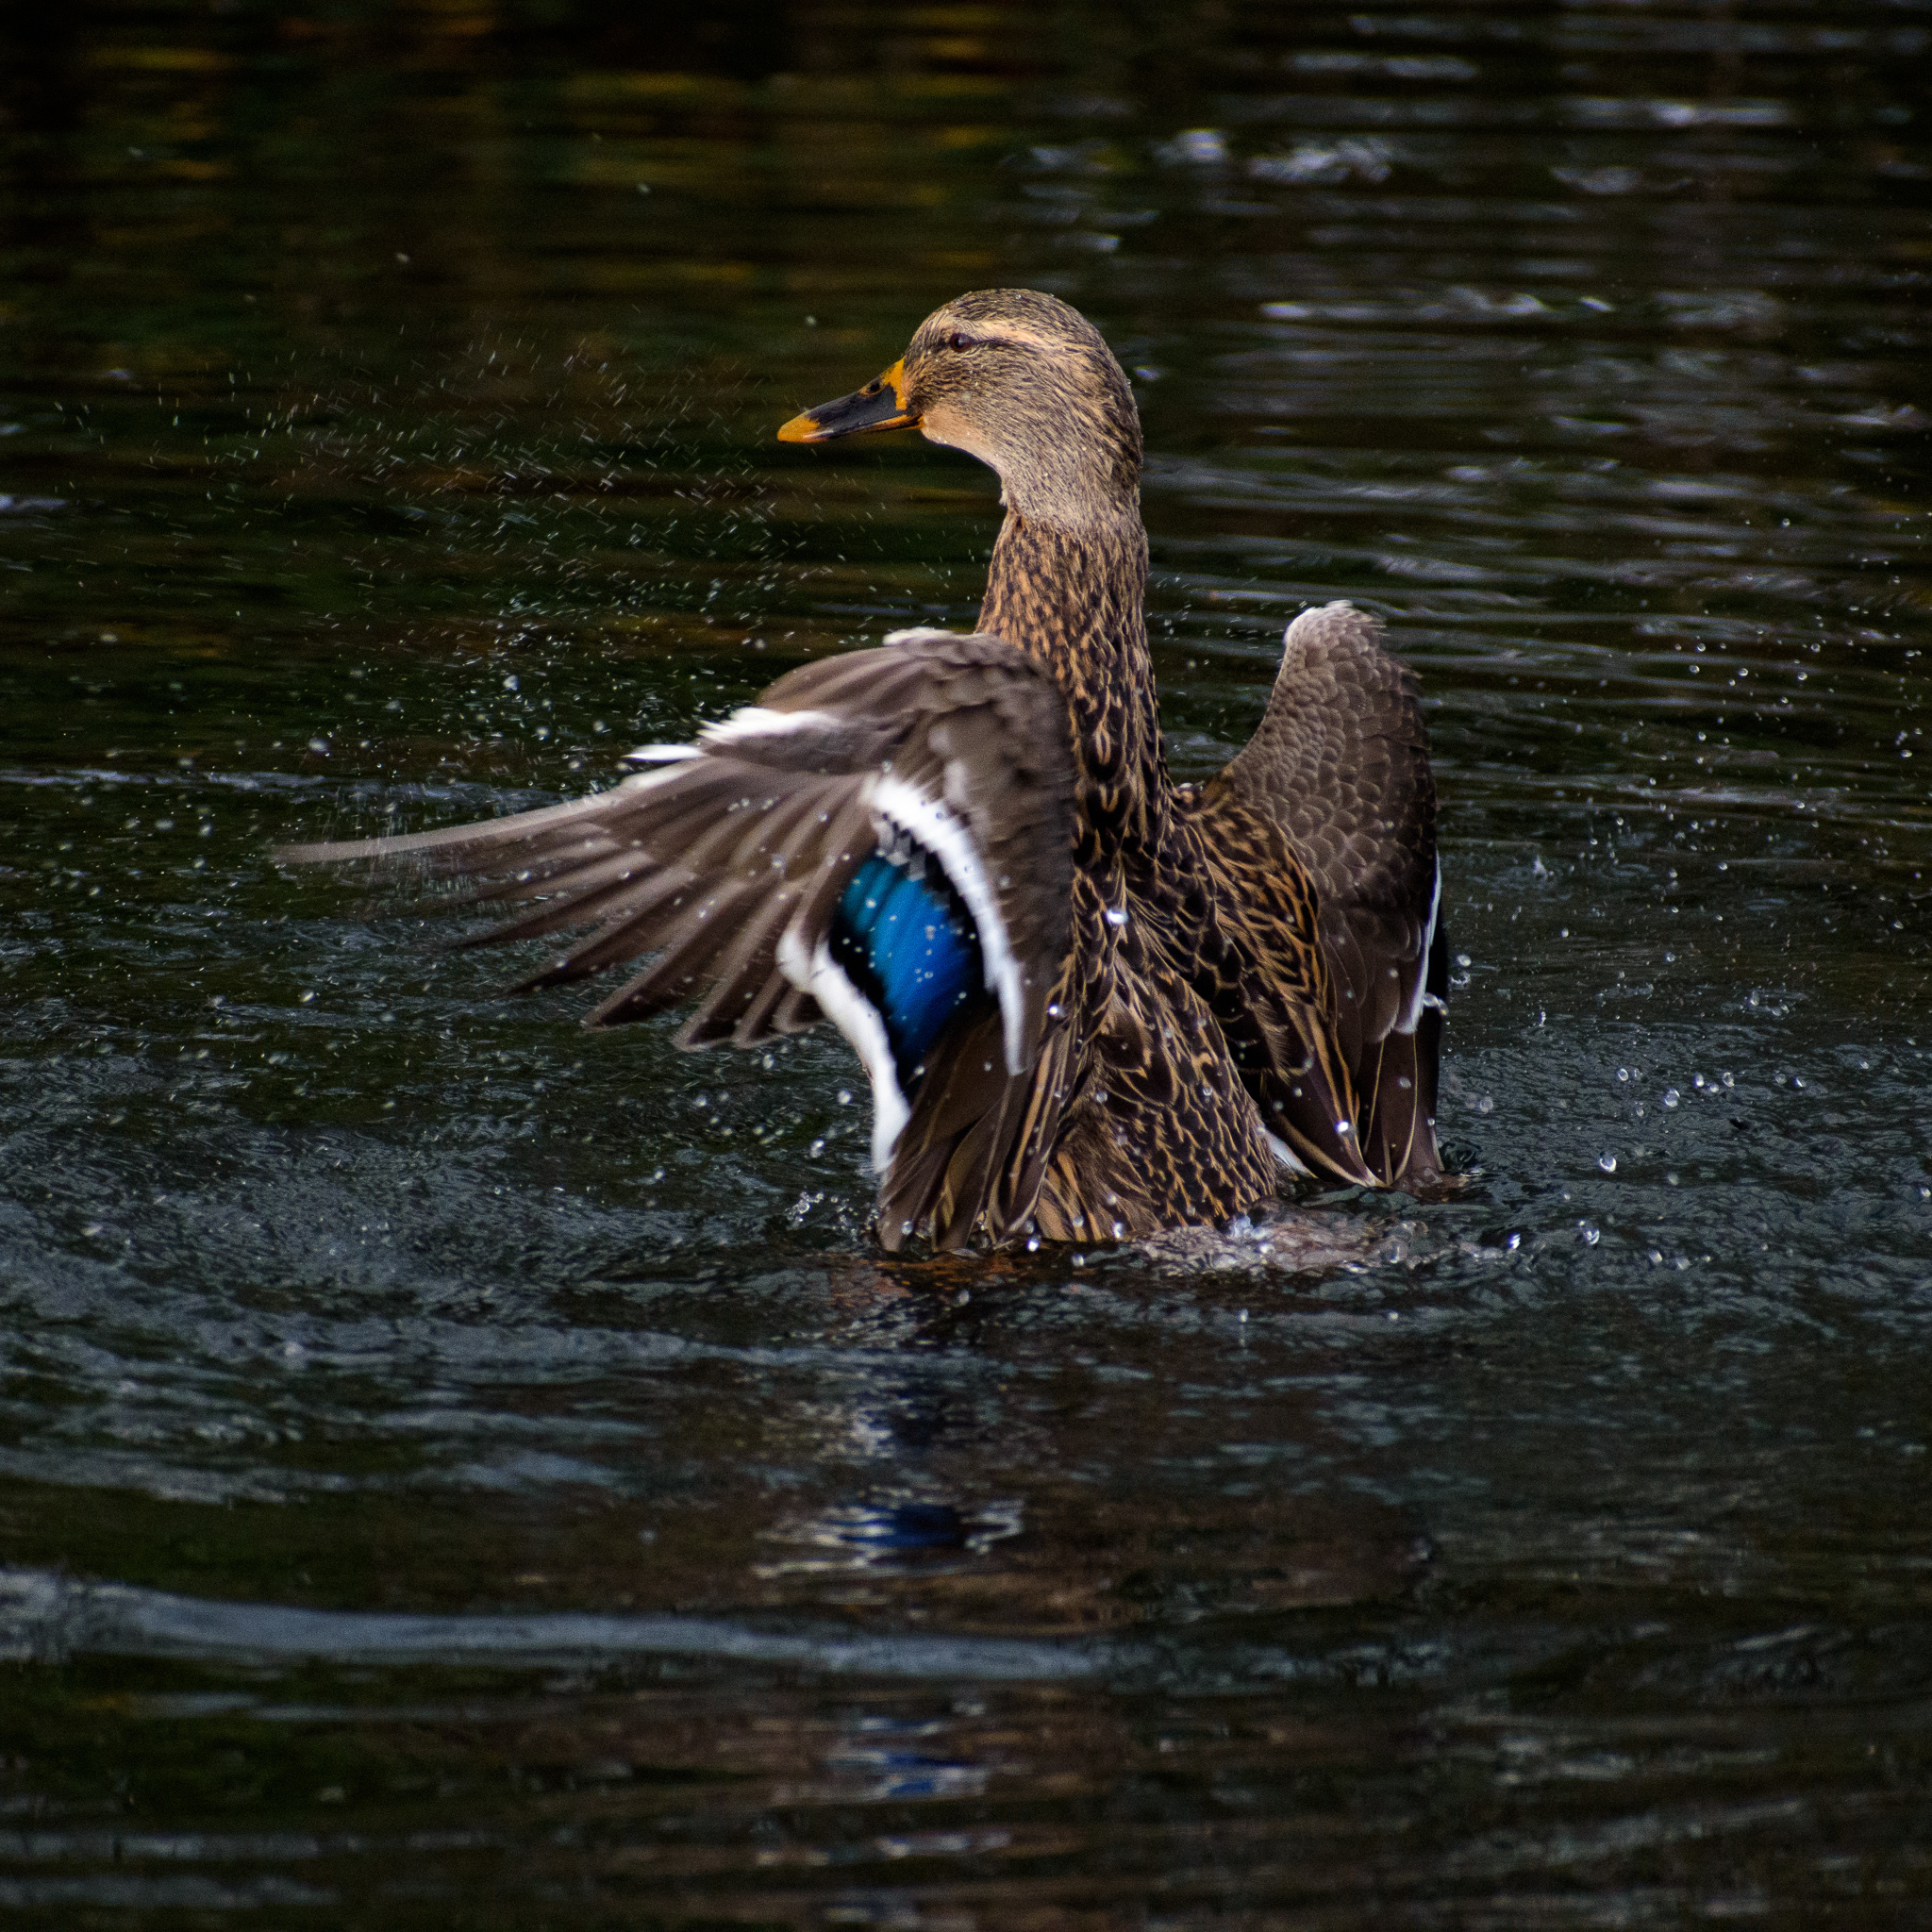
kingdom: Animalia
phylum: Chordata
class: Aves
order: Anseriformes
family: Anatidae
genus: Anas
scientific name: Anas platyrhynchos
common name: Mallard
